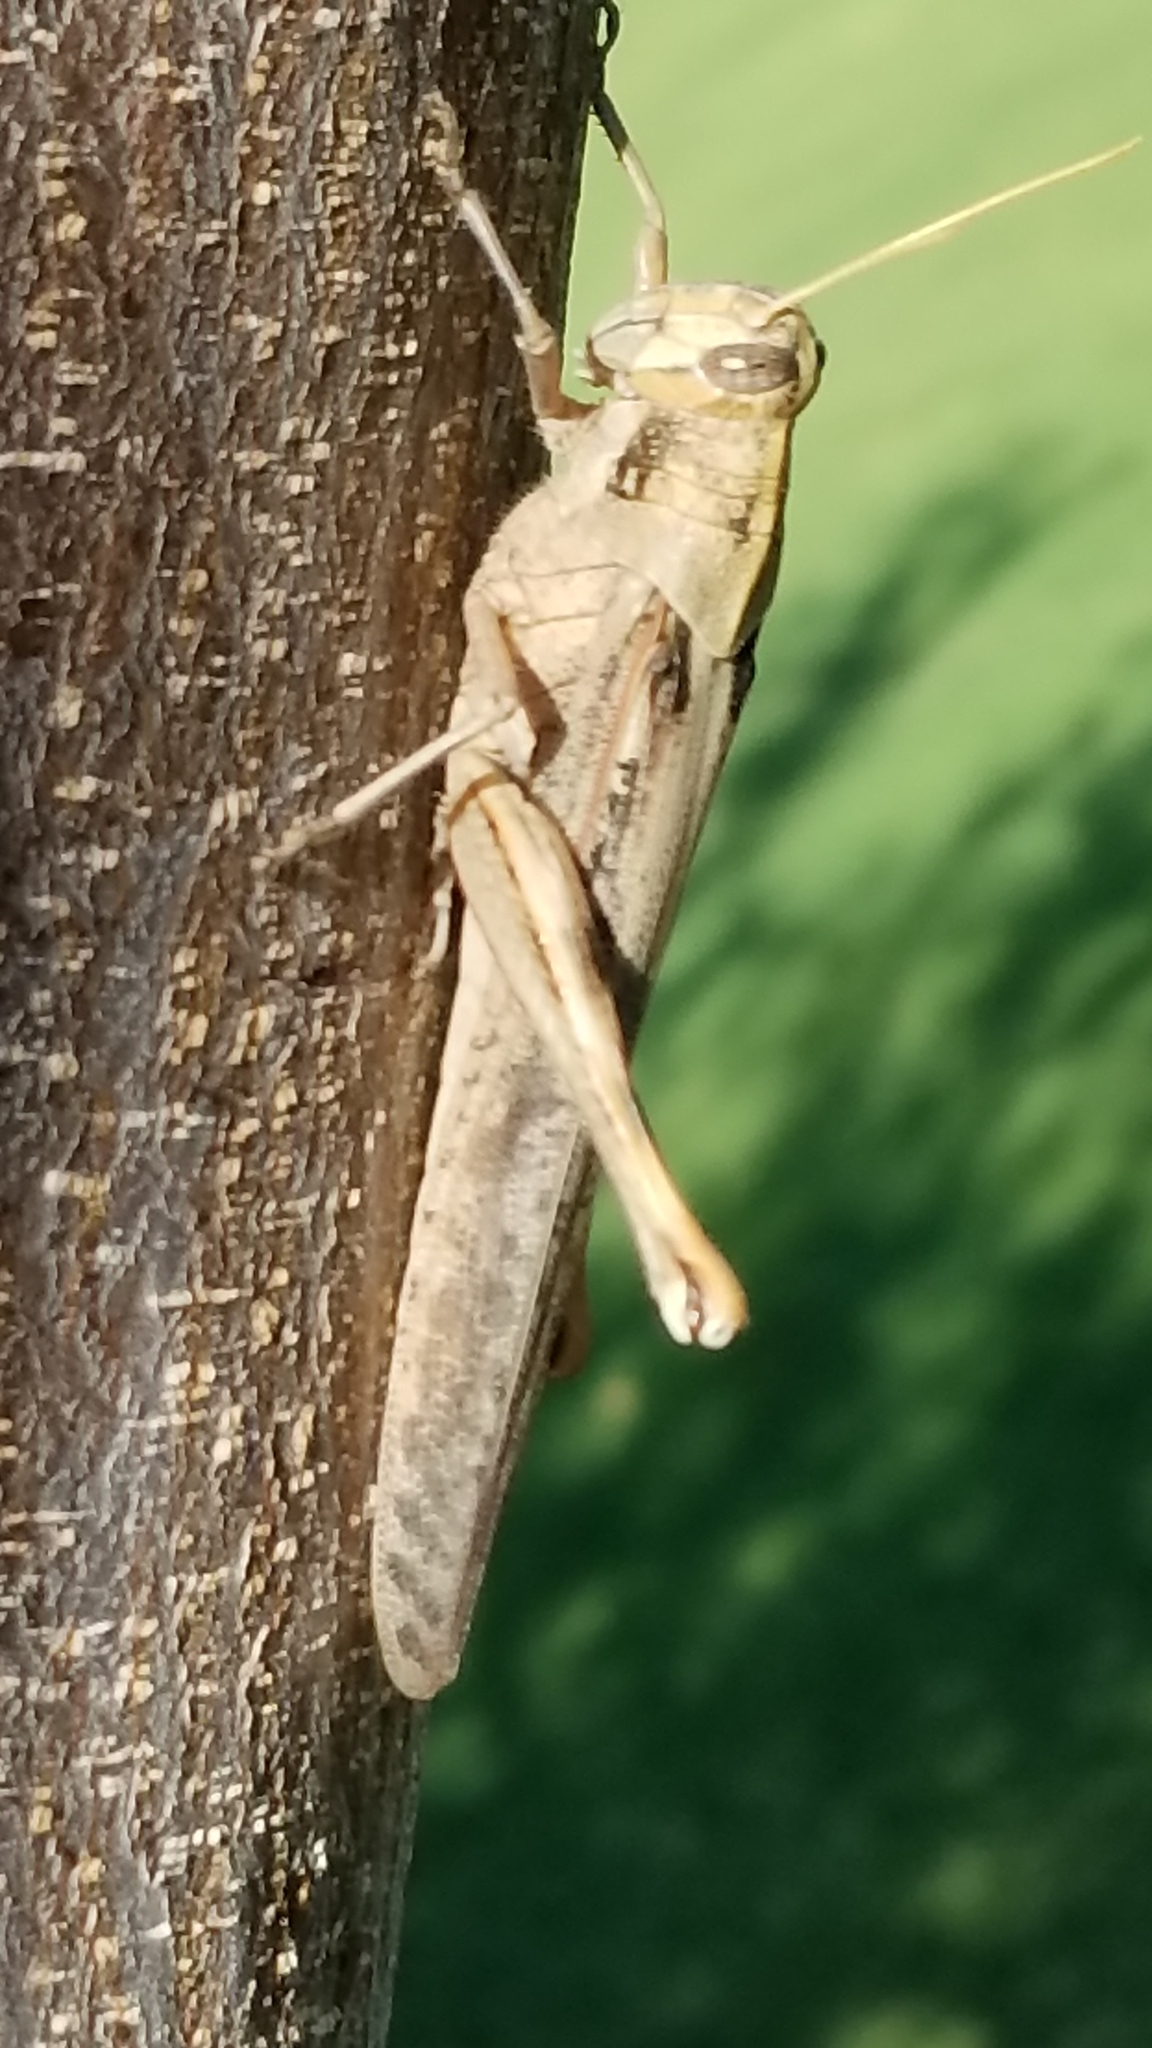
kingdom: Animalia
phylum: Arthropoda
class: Insecta
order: Orthoptera
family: Acrididae
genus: Schistocerca
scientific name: Schistocerca nitens
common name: Vagrant grasshopper
